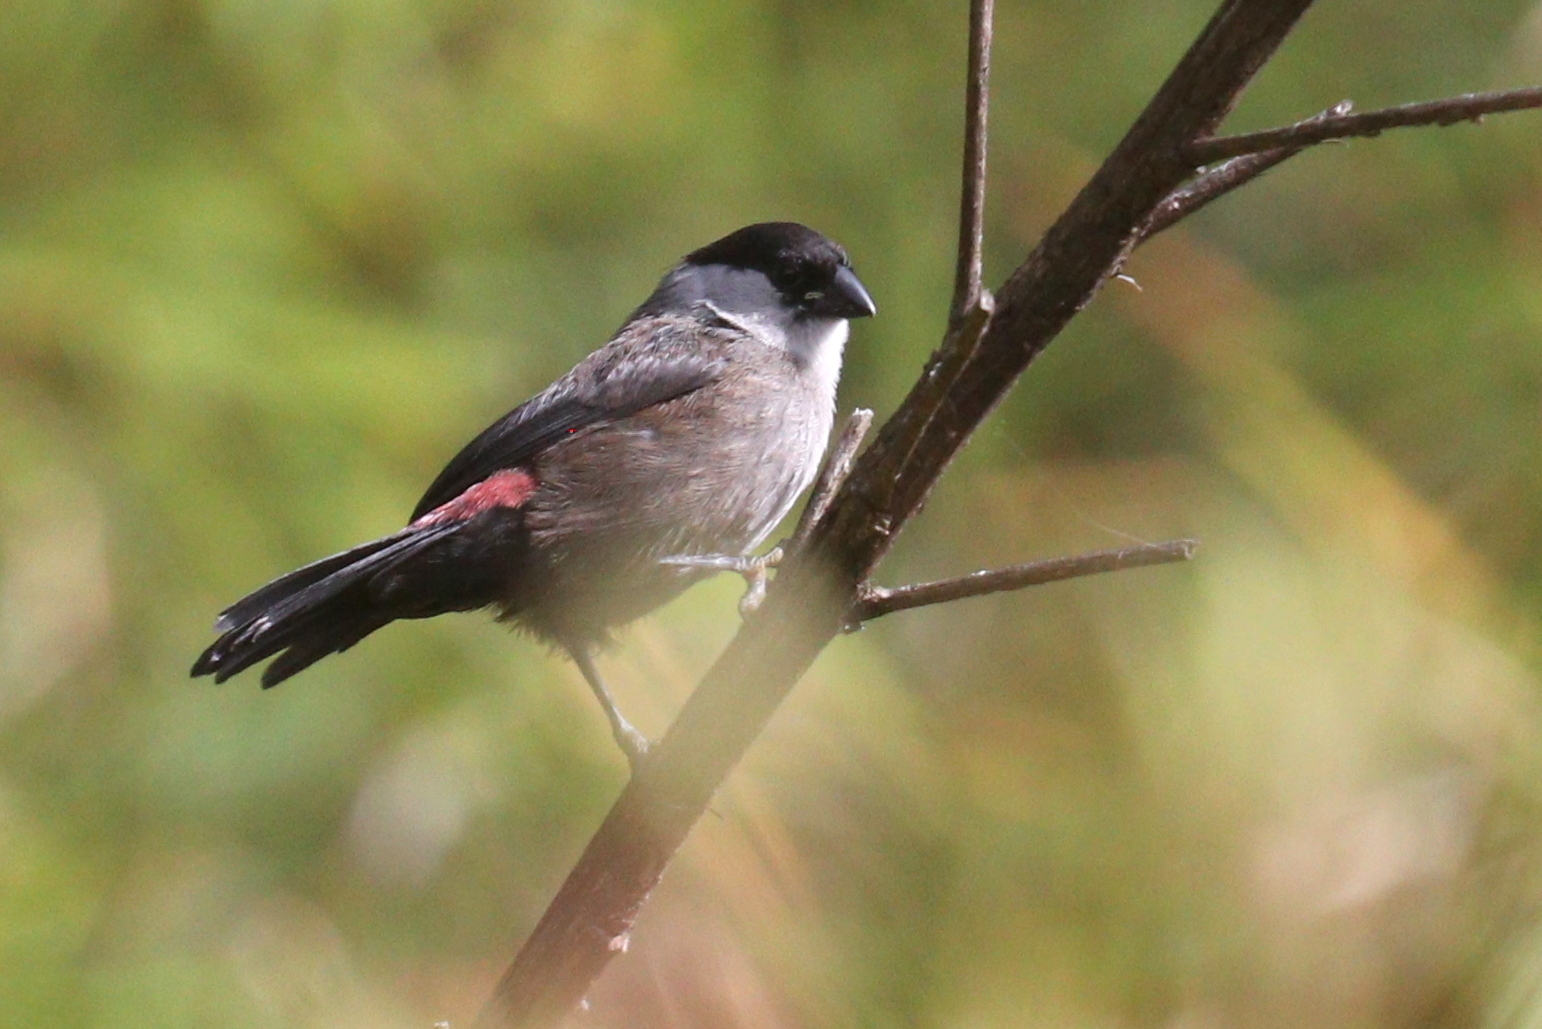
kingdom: Animalia
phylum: Chordata
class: Aves
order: Passeriformes
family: Estrildidae
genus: Estrilda
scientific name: Estrilda kandti
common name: Kandt's waxbill
